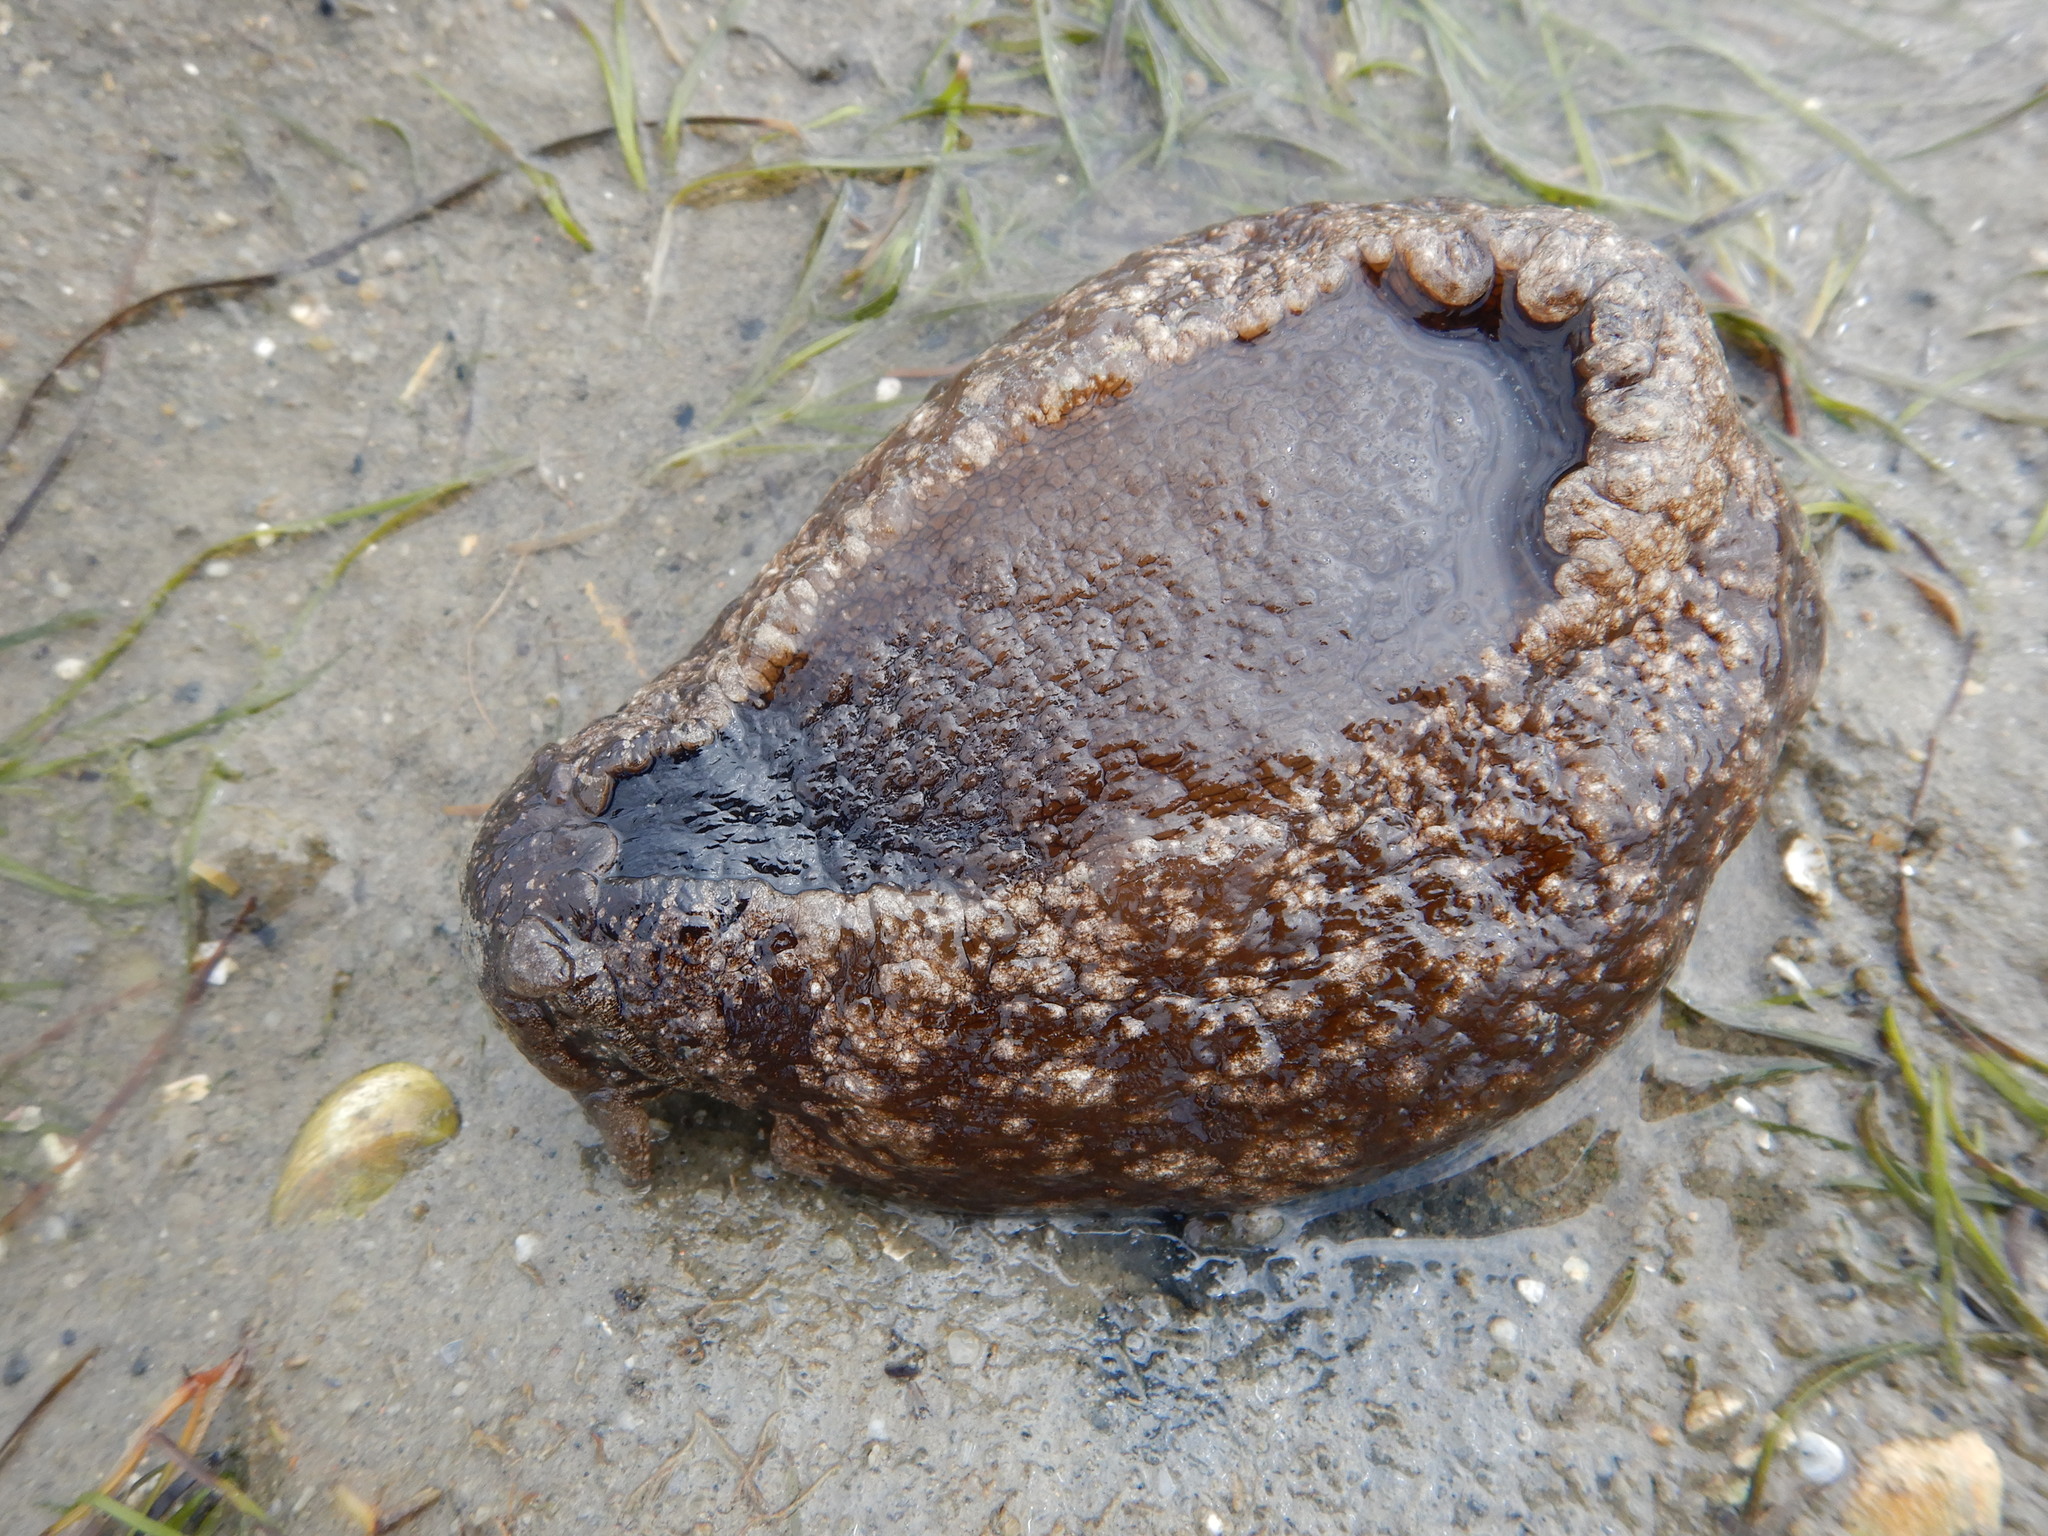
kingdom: Animalia
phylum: Mollusca
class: Gastropoda
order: Aplysiida
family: Aplysiidae
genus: Aplysia
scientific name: Aplysia depilans
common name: Spotted sea hare
